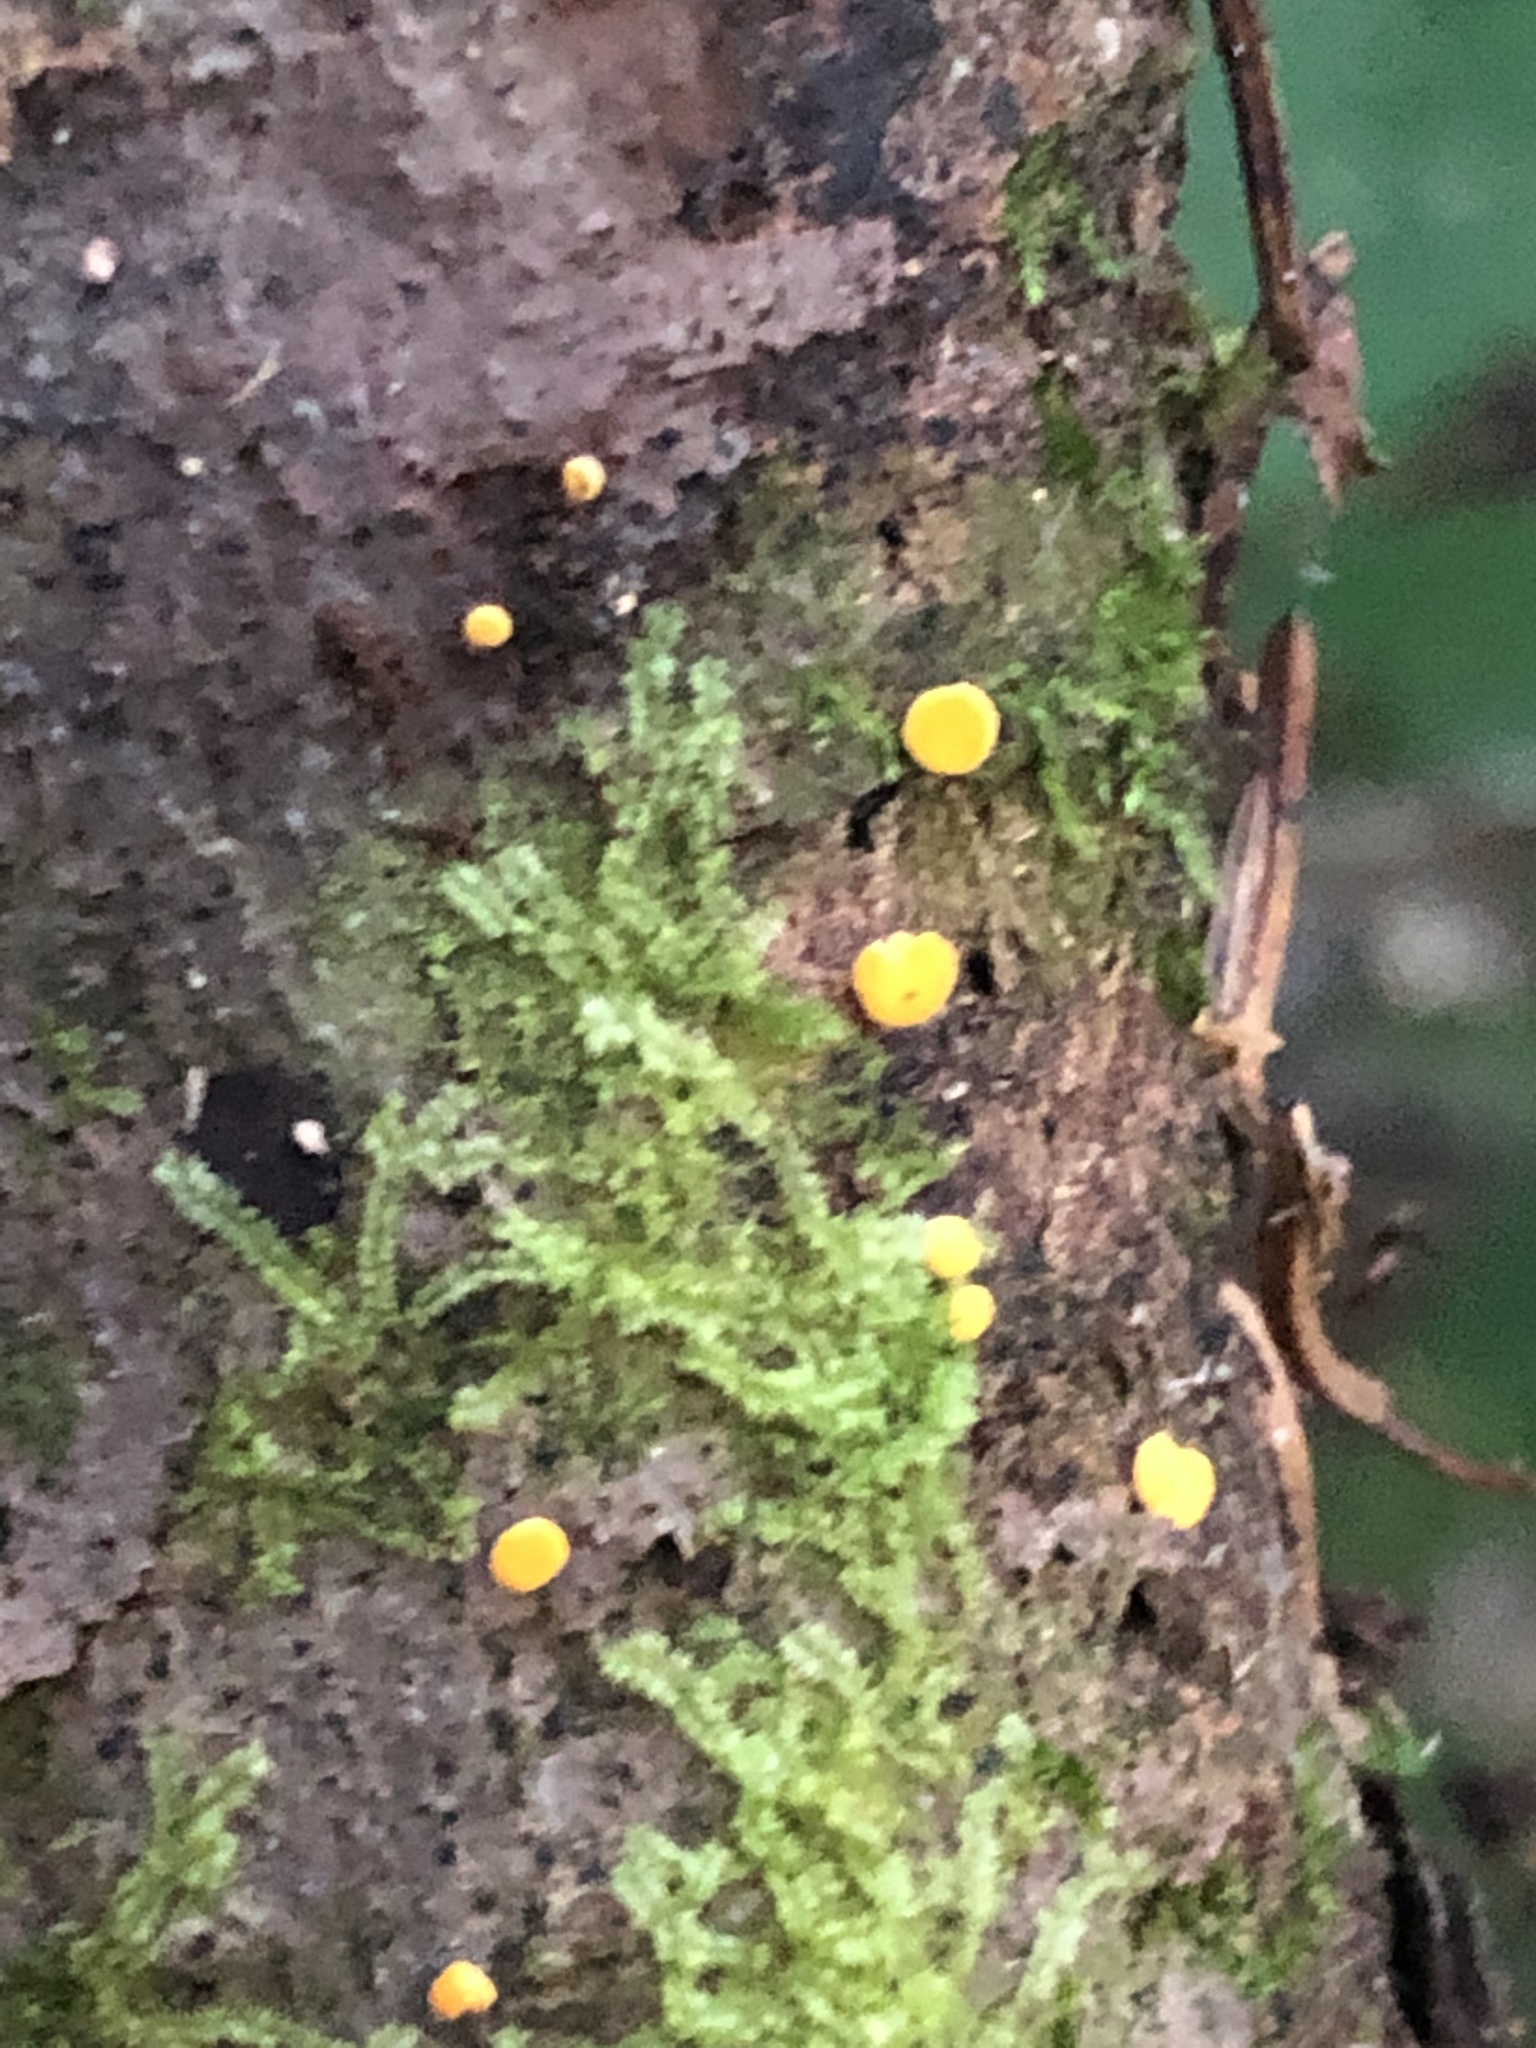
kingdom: Fungi
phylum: Ascomycota
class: Leotiomycetes
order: Helotiales
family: Pezizellaceae
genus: Calycina
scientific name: Calycina citrina
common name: Yellow fairy cups
